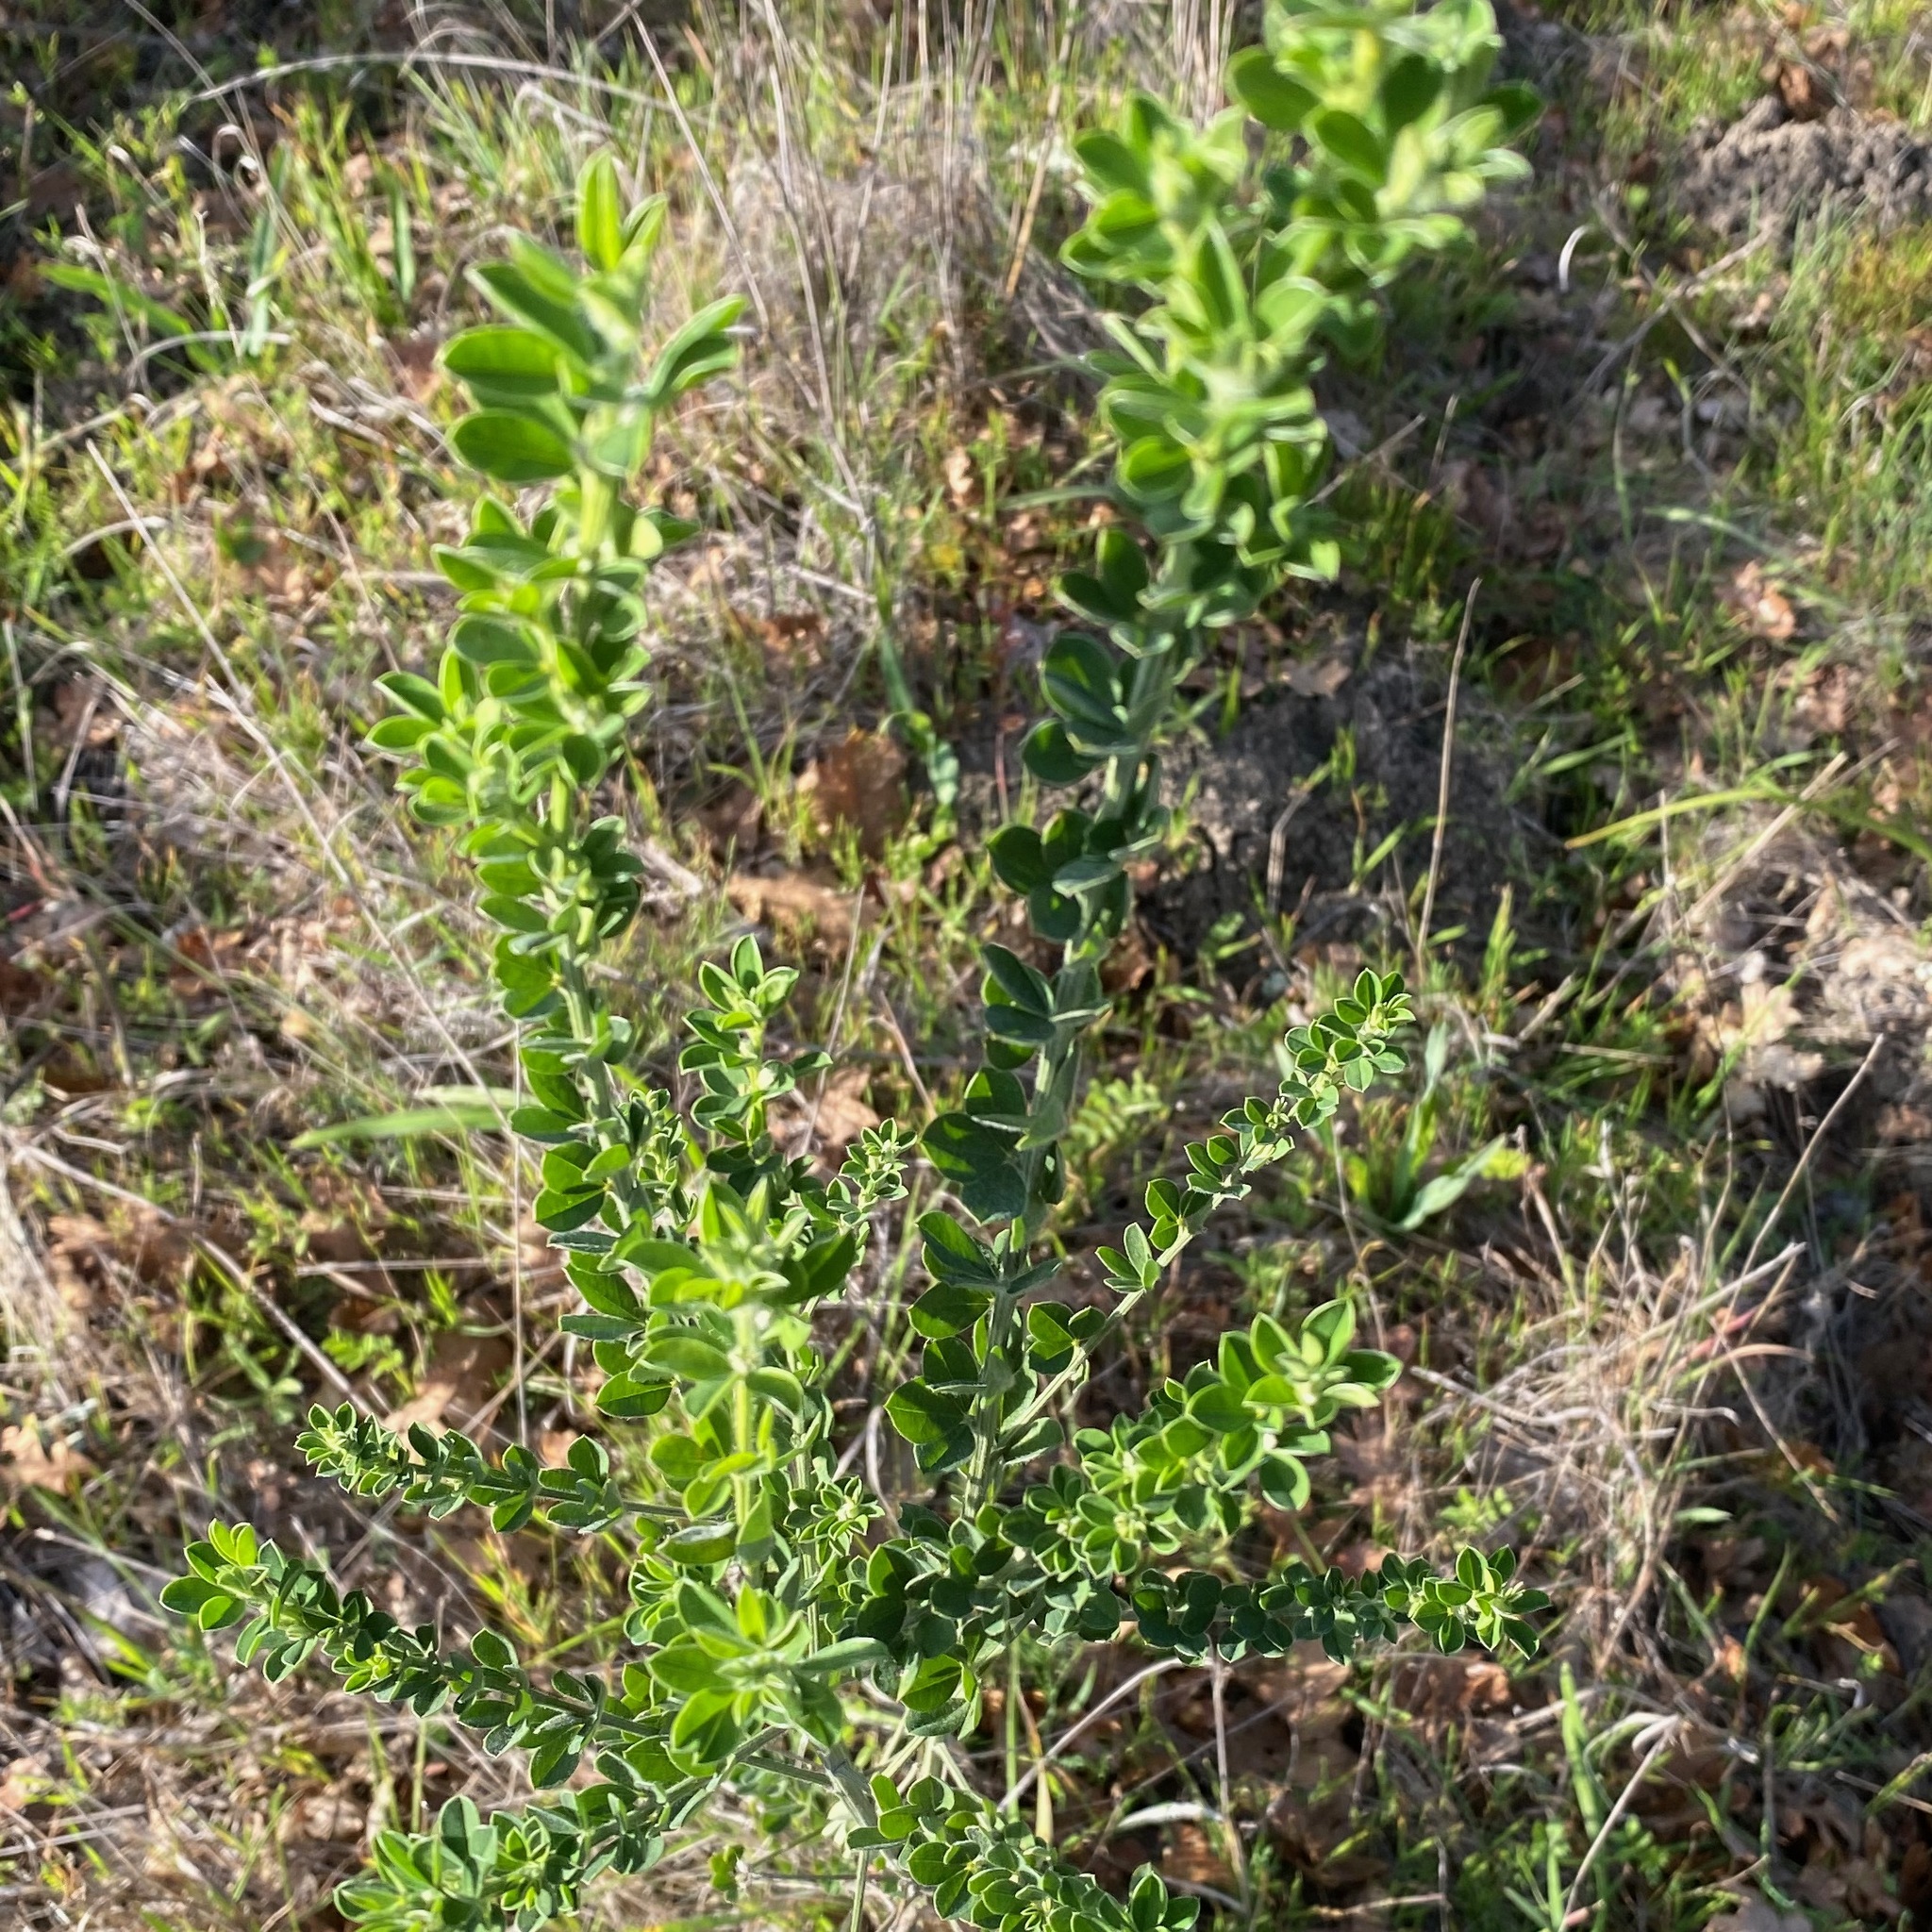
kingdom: Plantae
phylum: Tracheophyta
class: Magnoliopsida
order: Fabales
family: Fabaceae
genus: Genista
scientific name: Genista monspessulana
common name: Montpellier broom
